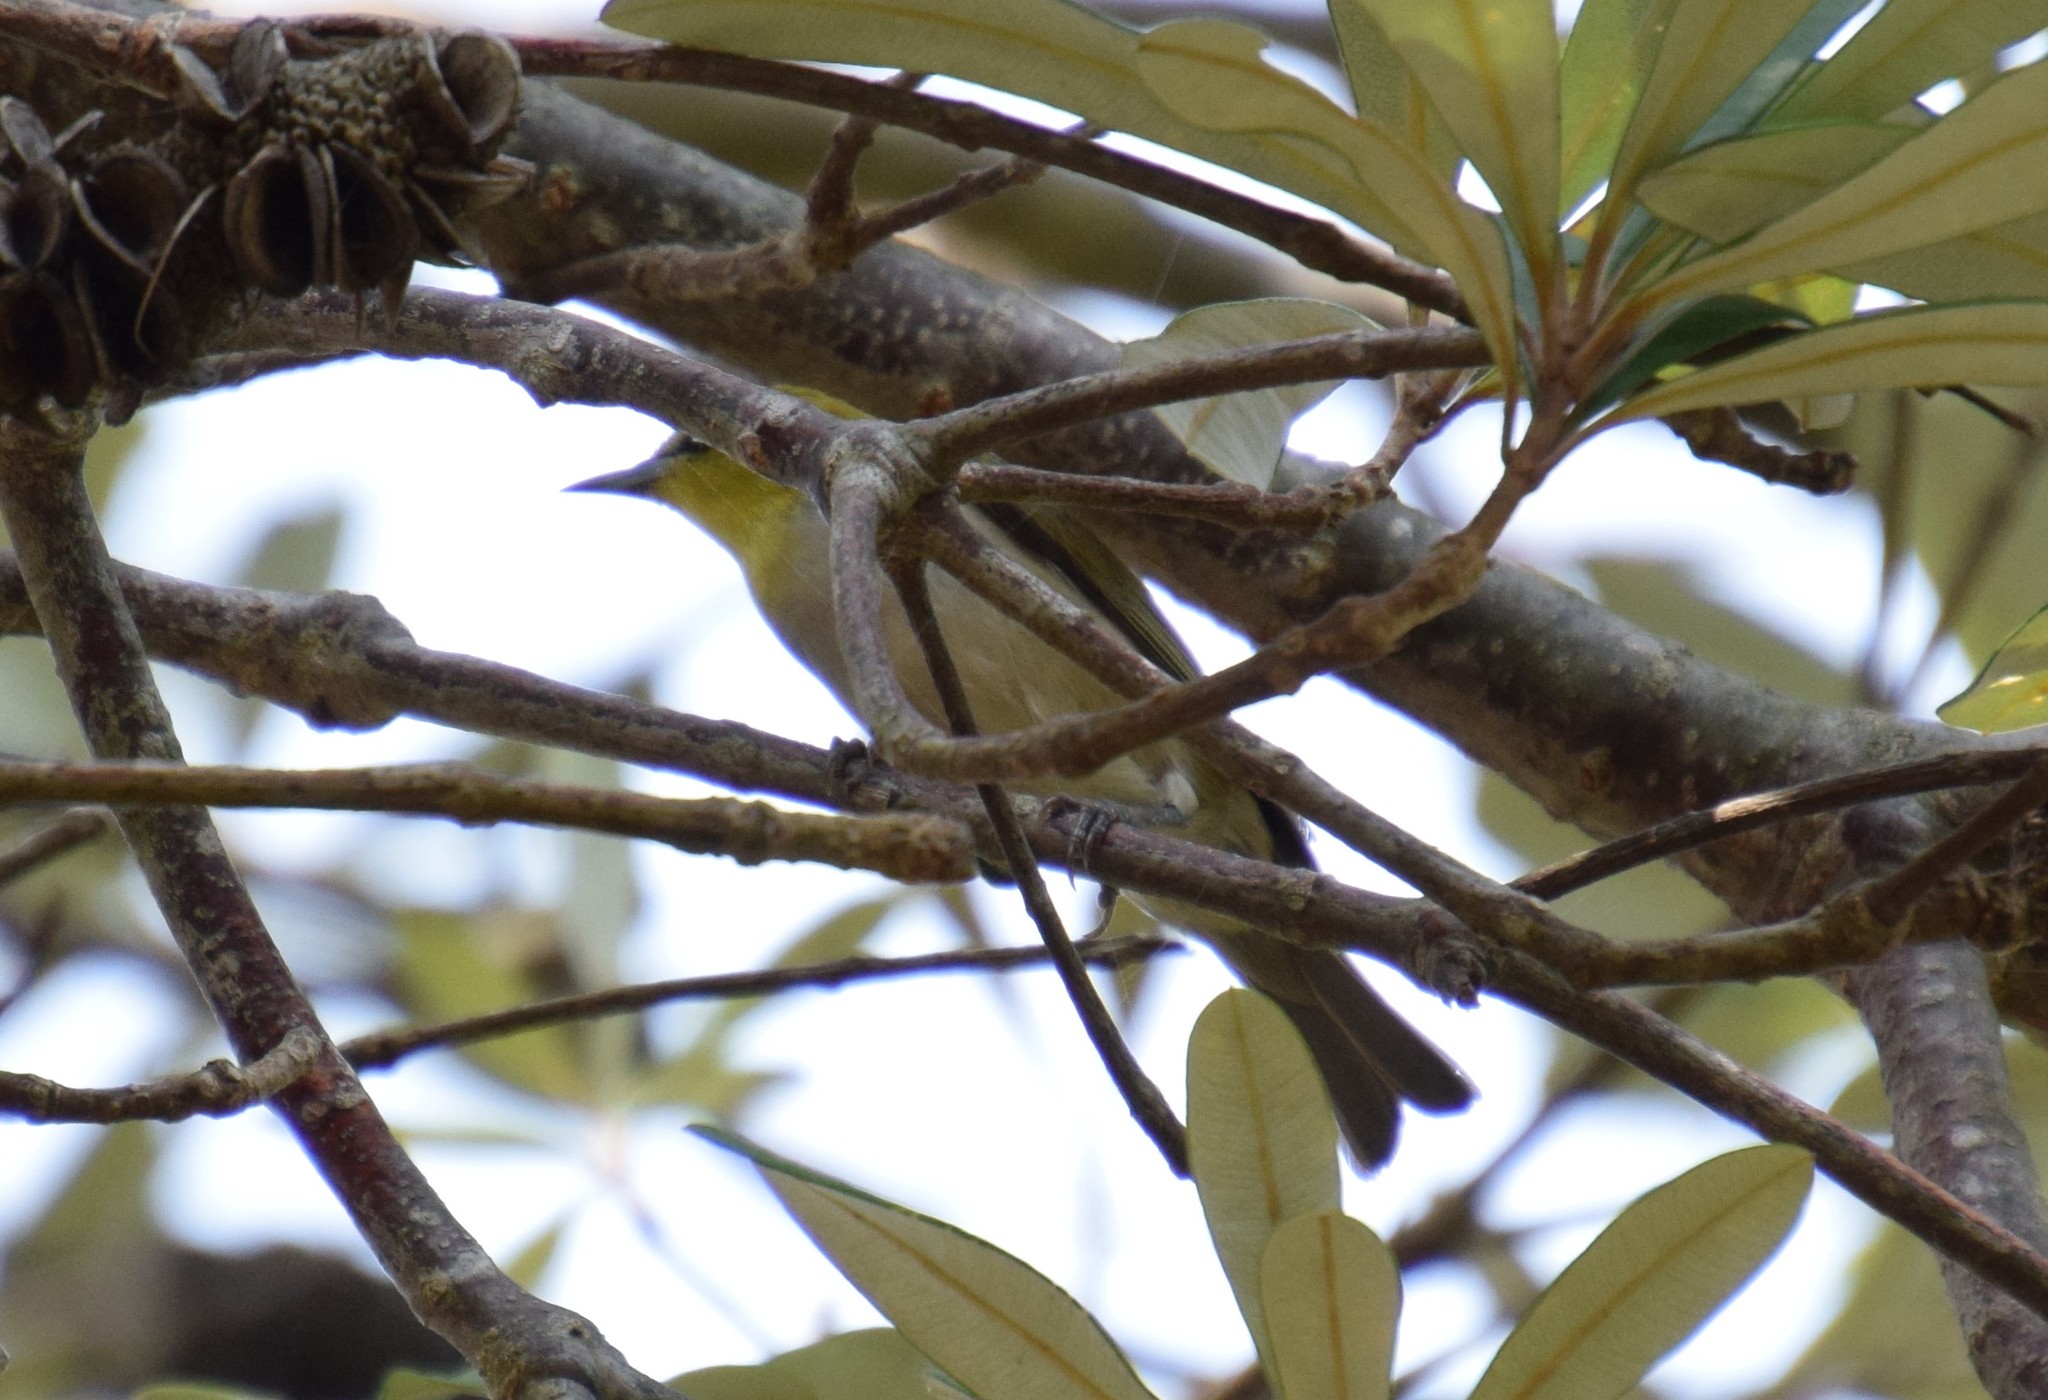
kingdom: Animalia
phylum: Chordata
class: Aves
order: Passeriformes
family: Zosteropidae
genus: Zosterops
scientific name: Zosterops lateralis
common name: Silvereye
